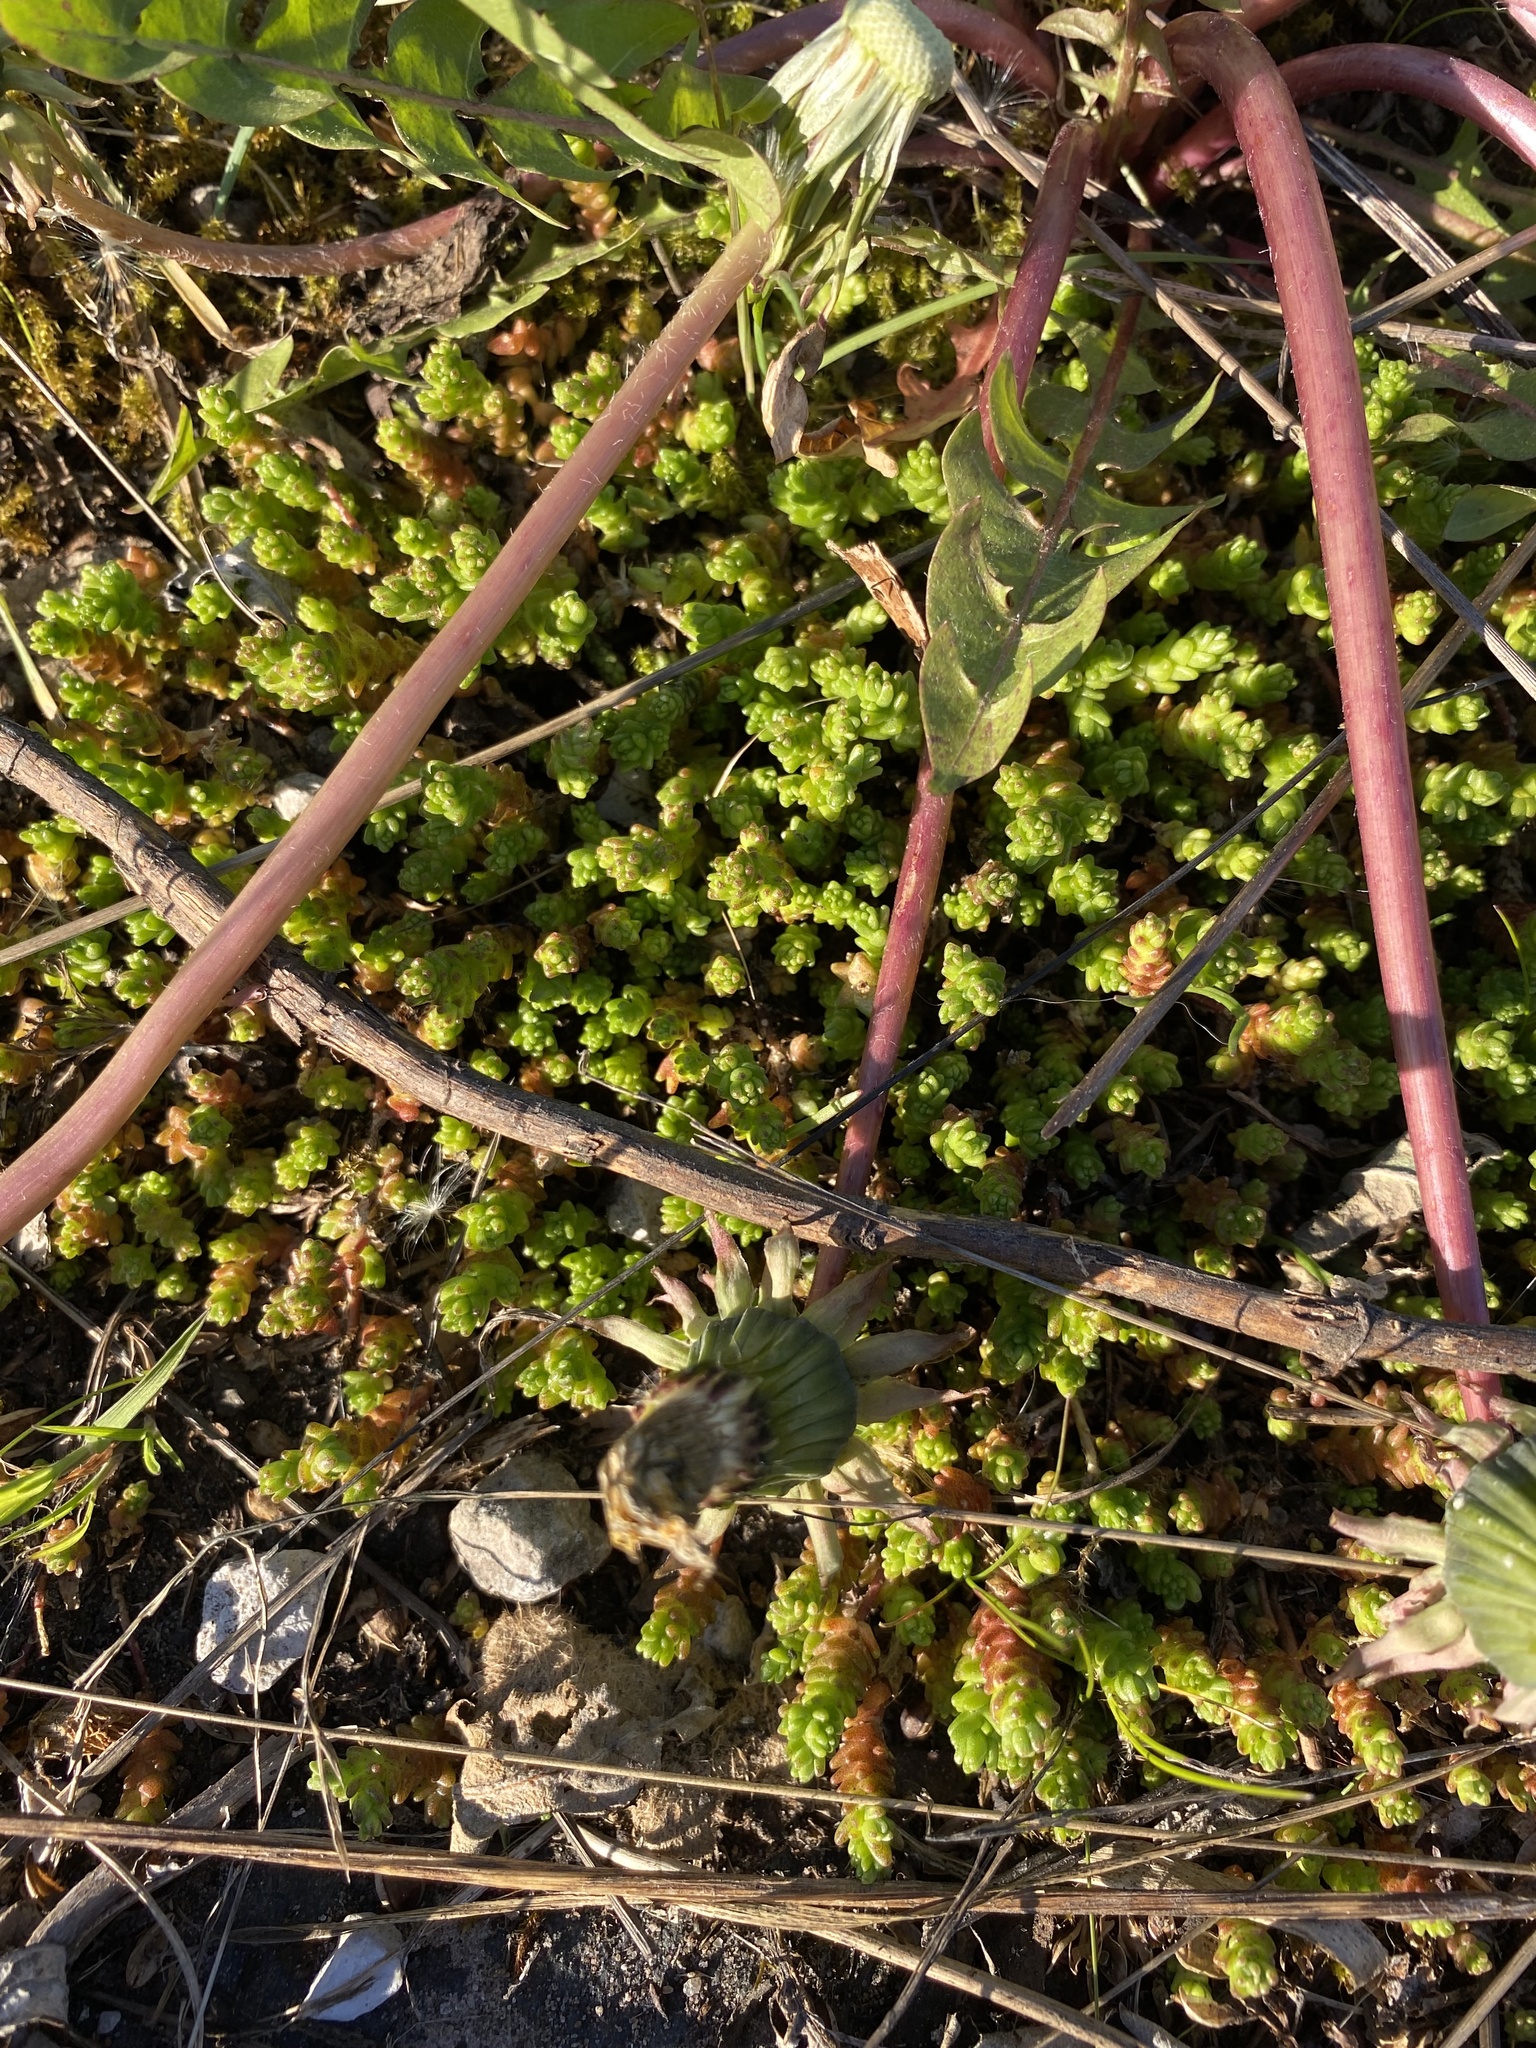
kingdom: Plantae
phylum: Tracheophyta
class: Magnoliopsida
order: Saxifragales
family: Crassulaceae
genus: Sedum
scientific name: Sedum acre
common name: Biting stonecrop
